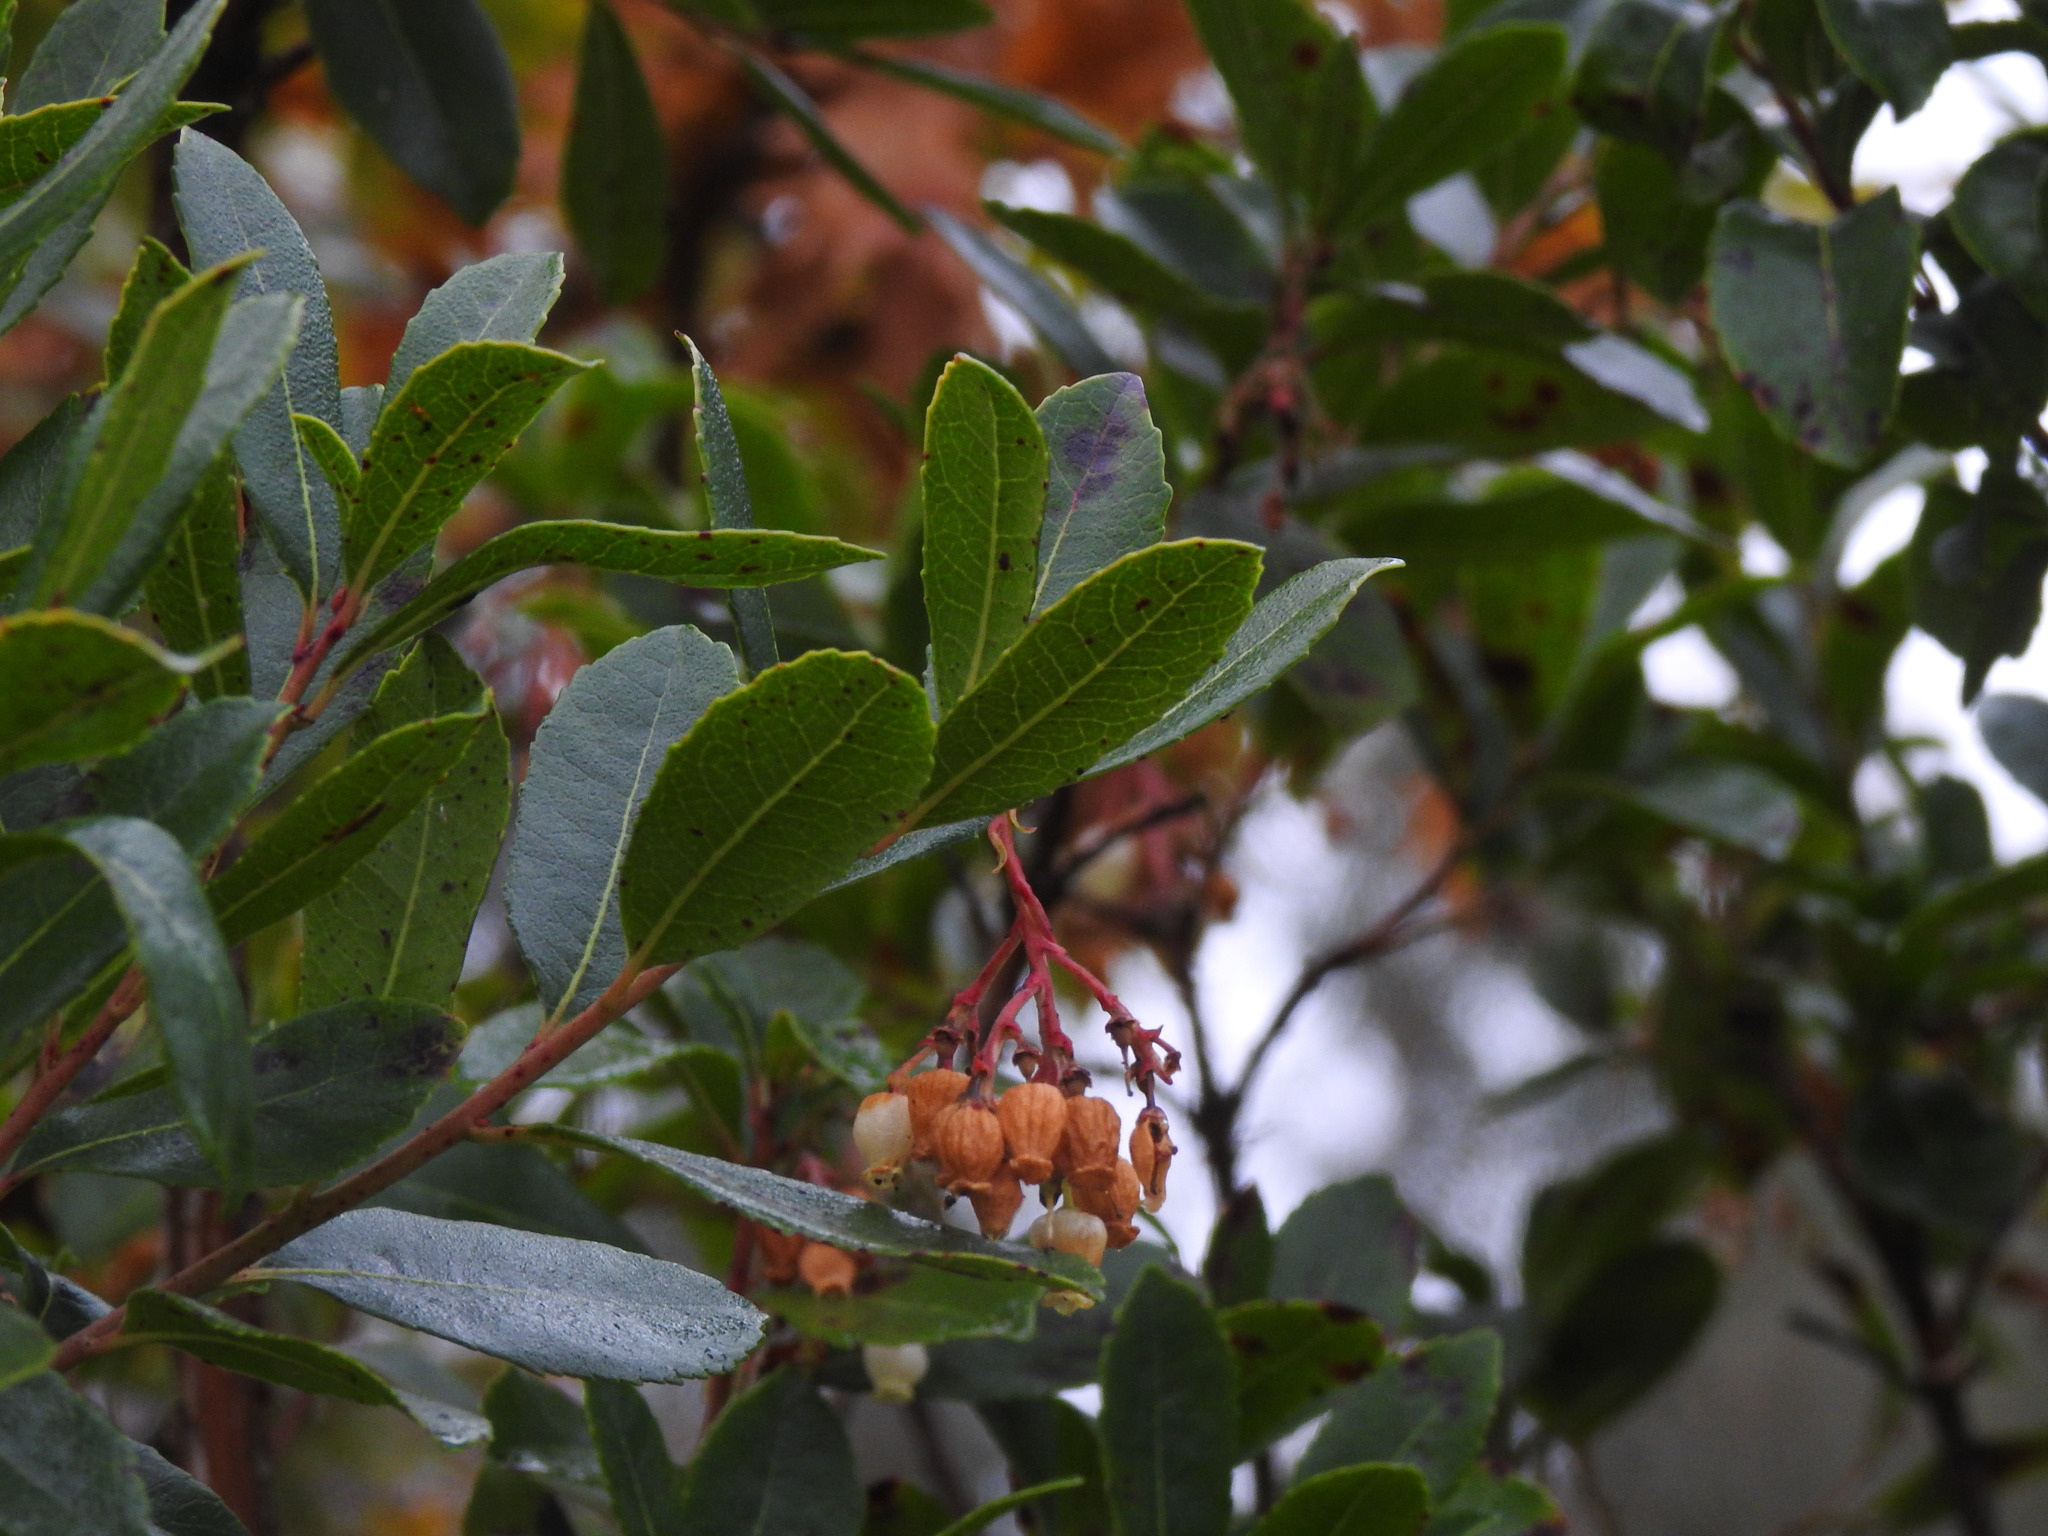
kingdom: Plantae
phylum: Tracheophyta
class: Magnoliopsida
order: Ericales
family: Ericaceae
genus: Arbutus
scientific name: Arbutus unedo
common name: Strawberry-tree
